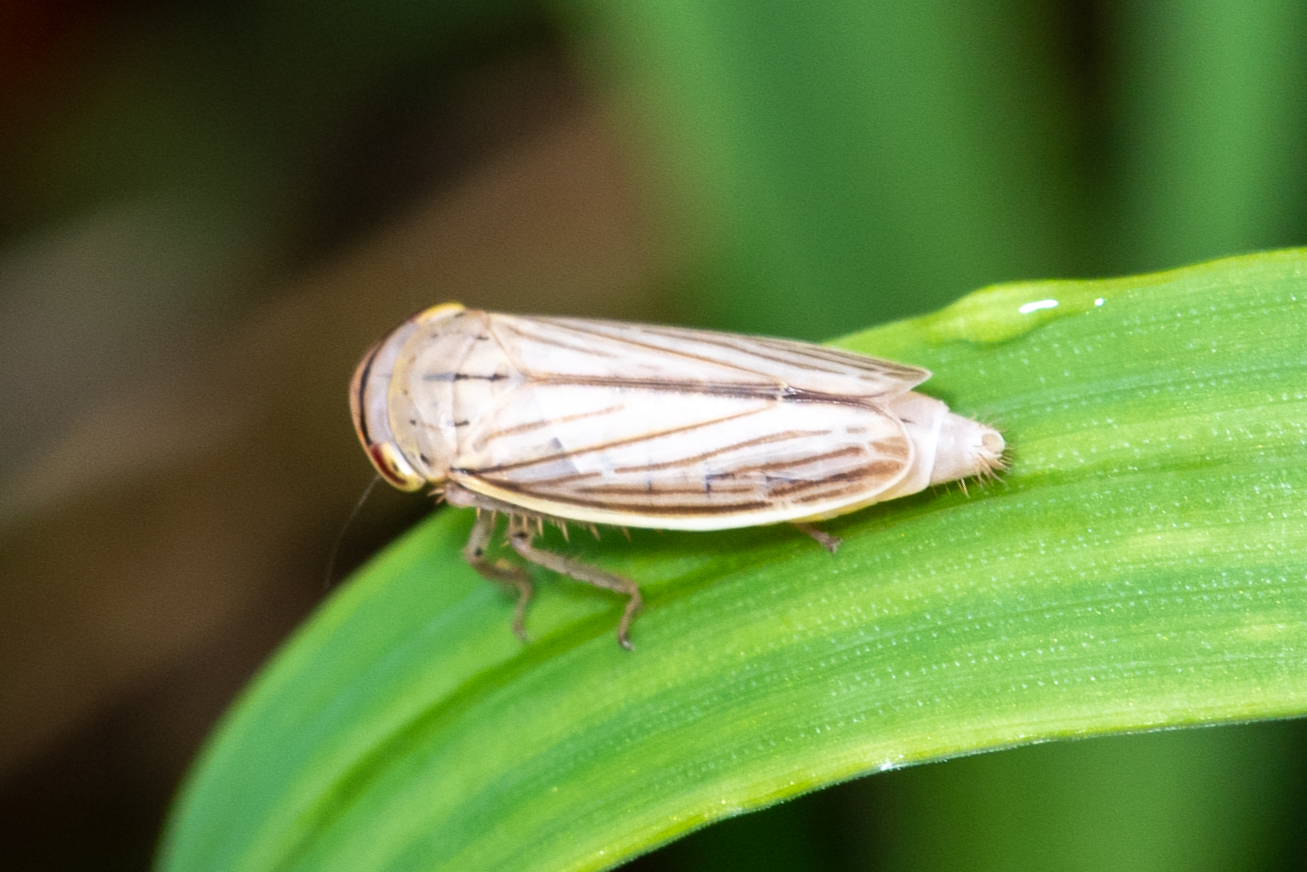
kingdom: Animalia
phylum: Arthropoda
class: Insecta
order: Hemiptera
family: Cicadellidae
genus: Athysanus
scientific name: Athysanus argentarius
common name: Silver leafhopper
